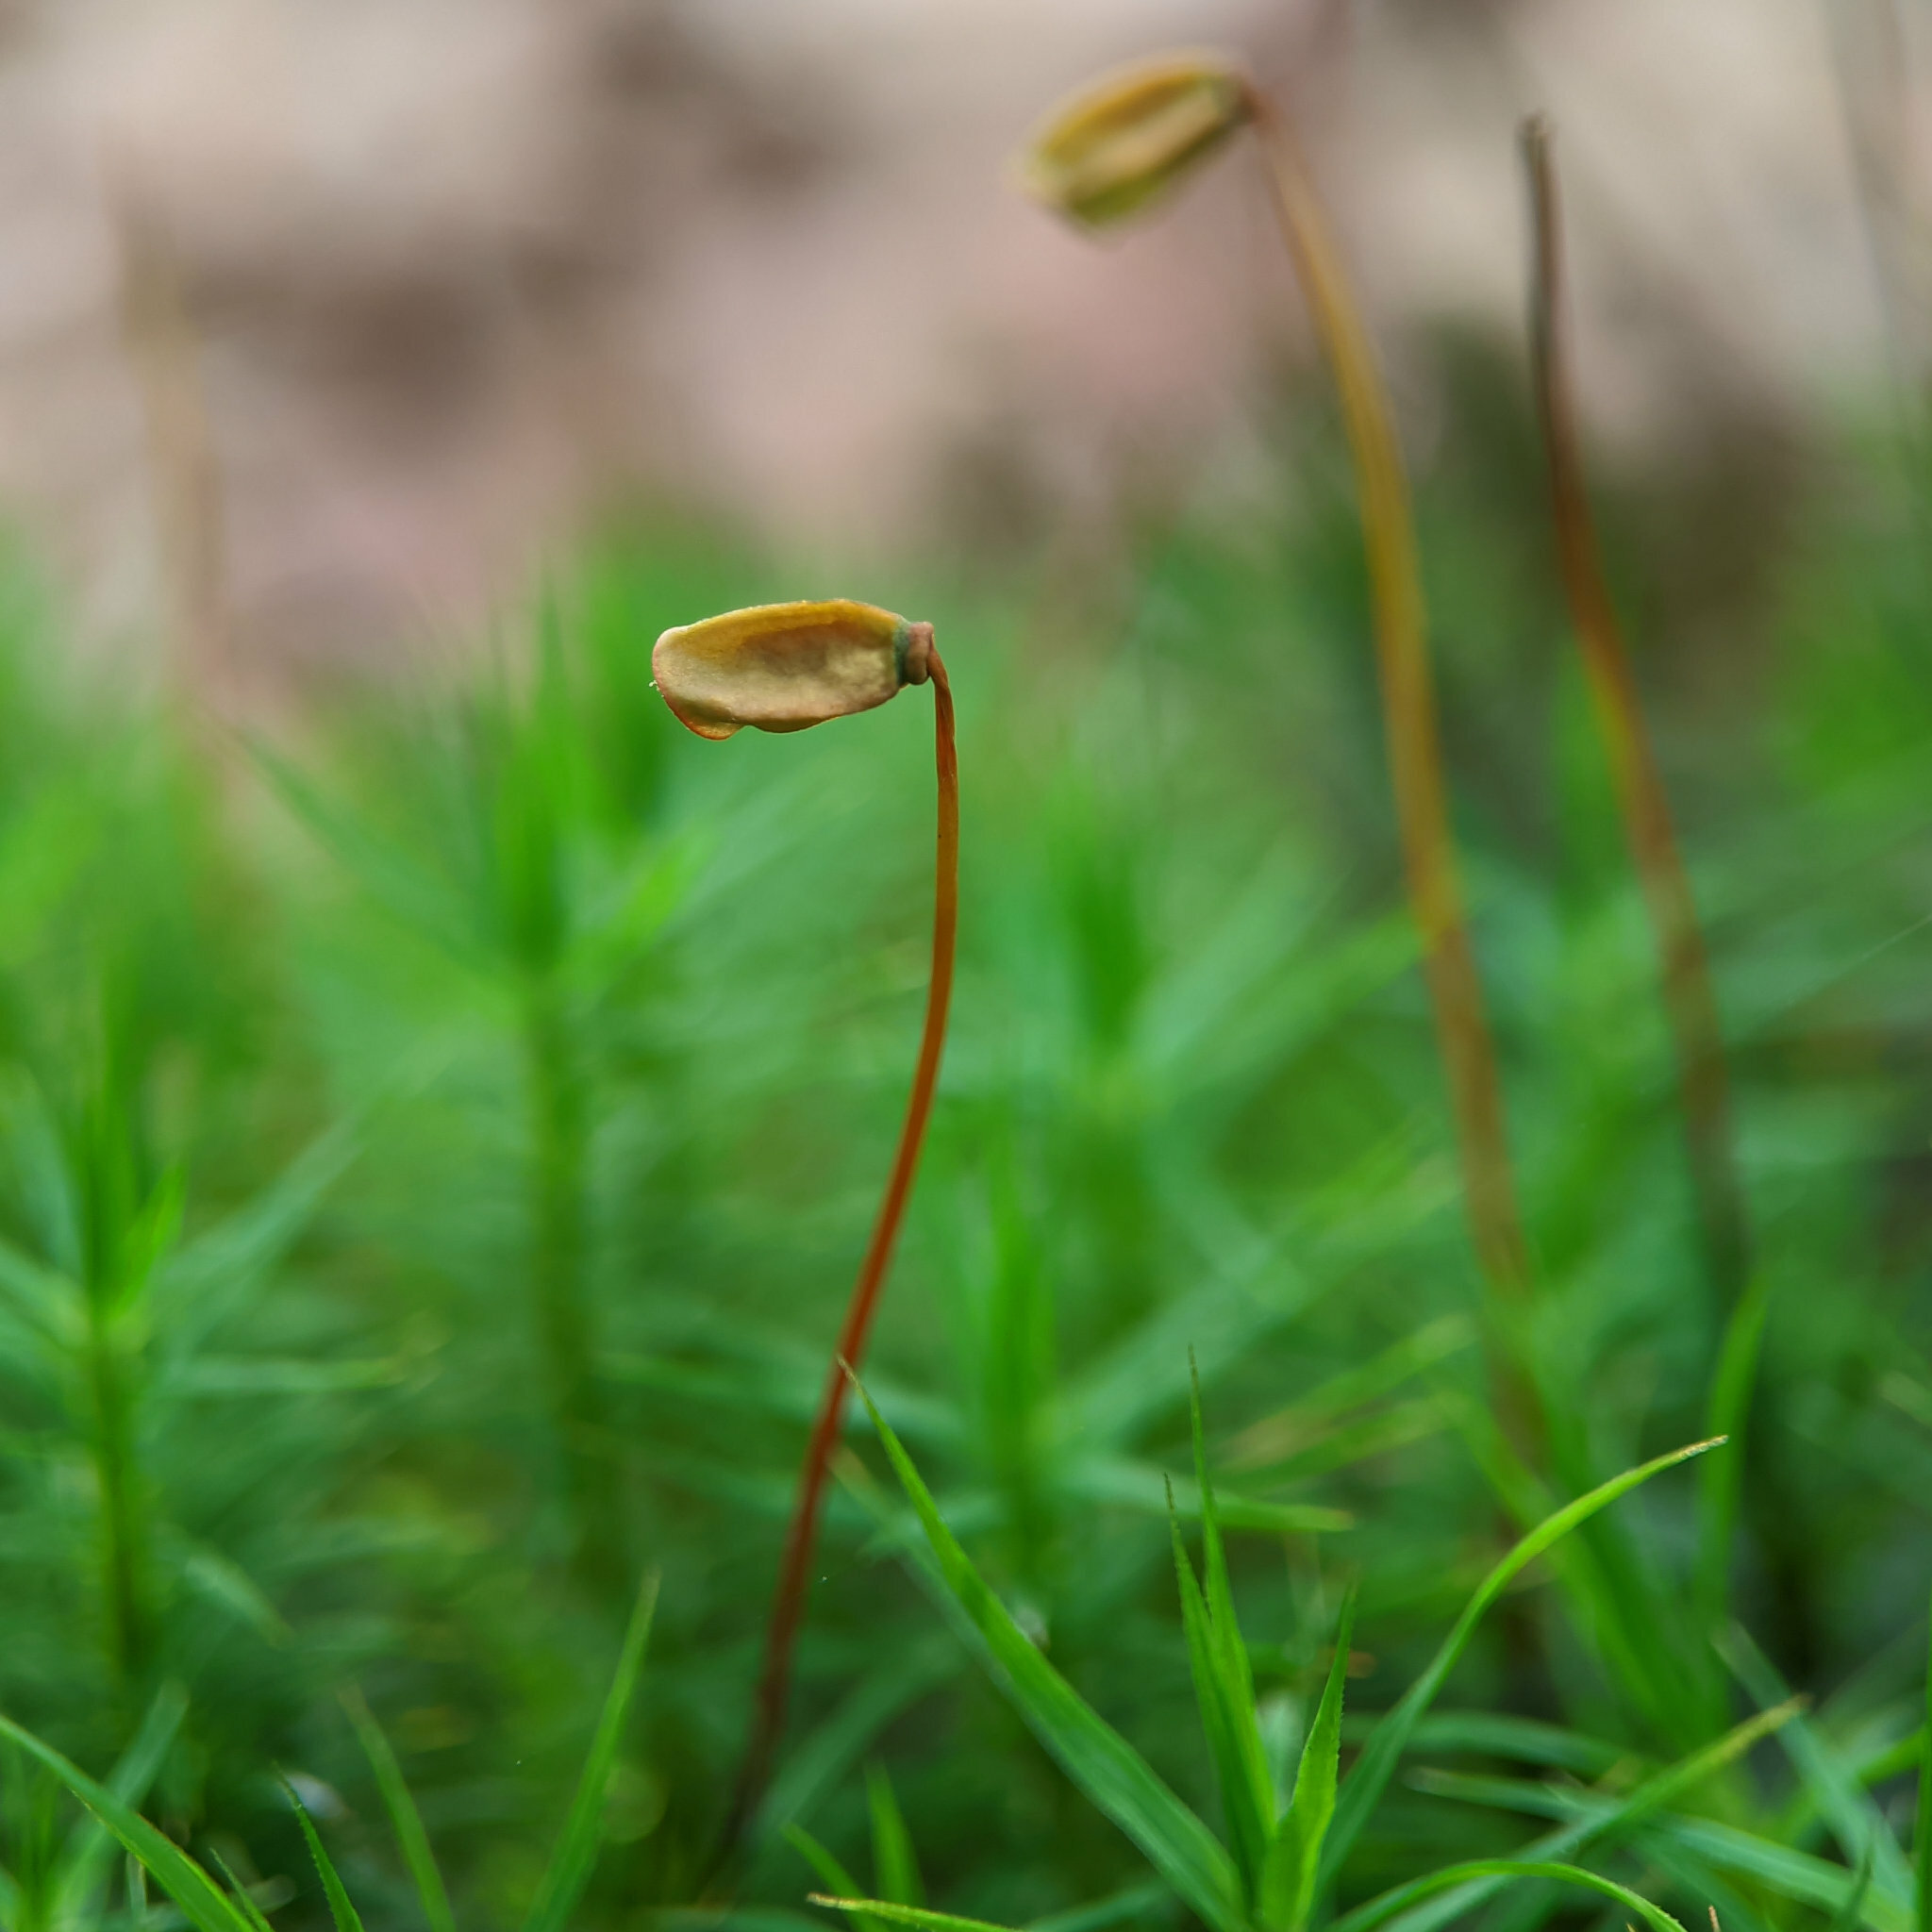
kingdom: Plantae
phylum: Bryophyta
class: Polytrichopsida
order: Polytrichales
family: Polytrichaceae
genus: Polytrichum
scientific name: Polytrichum formosum
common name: Bank haircap moss
